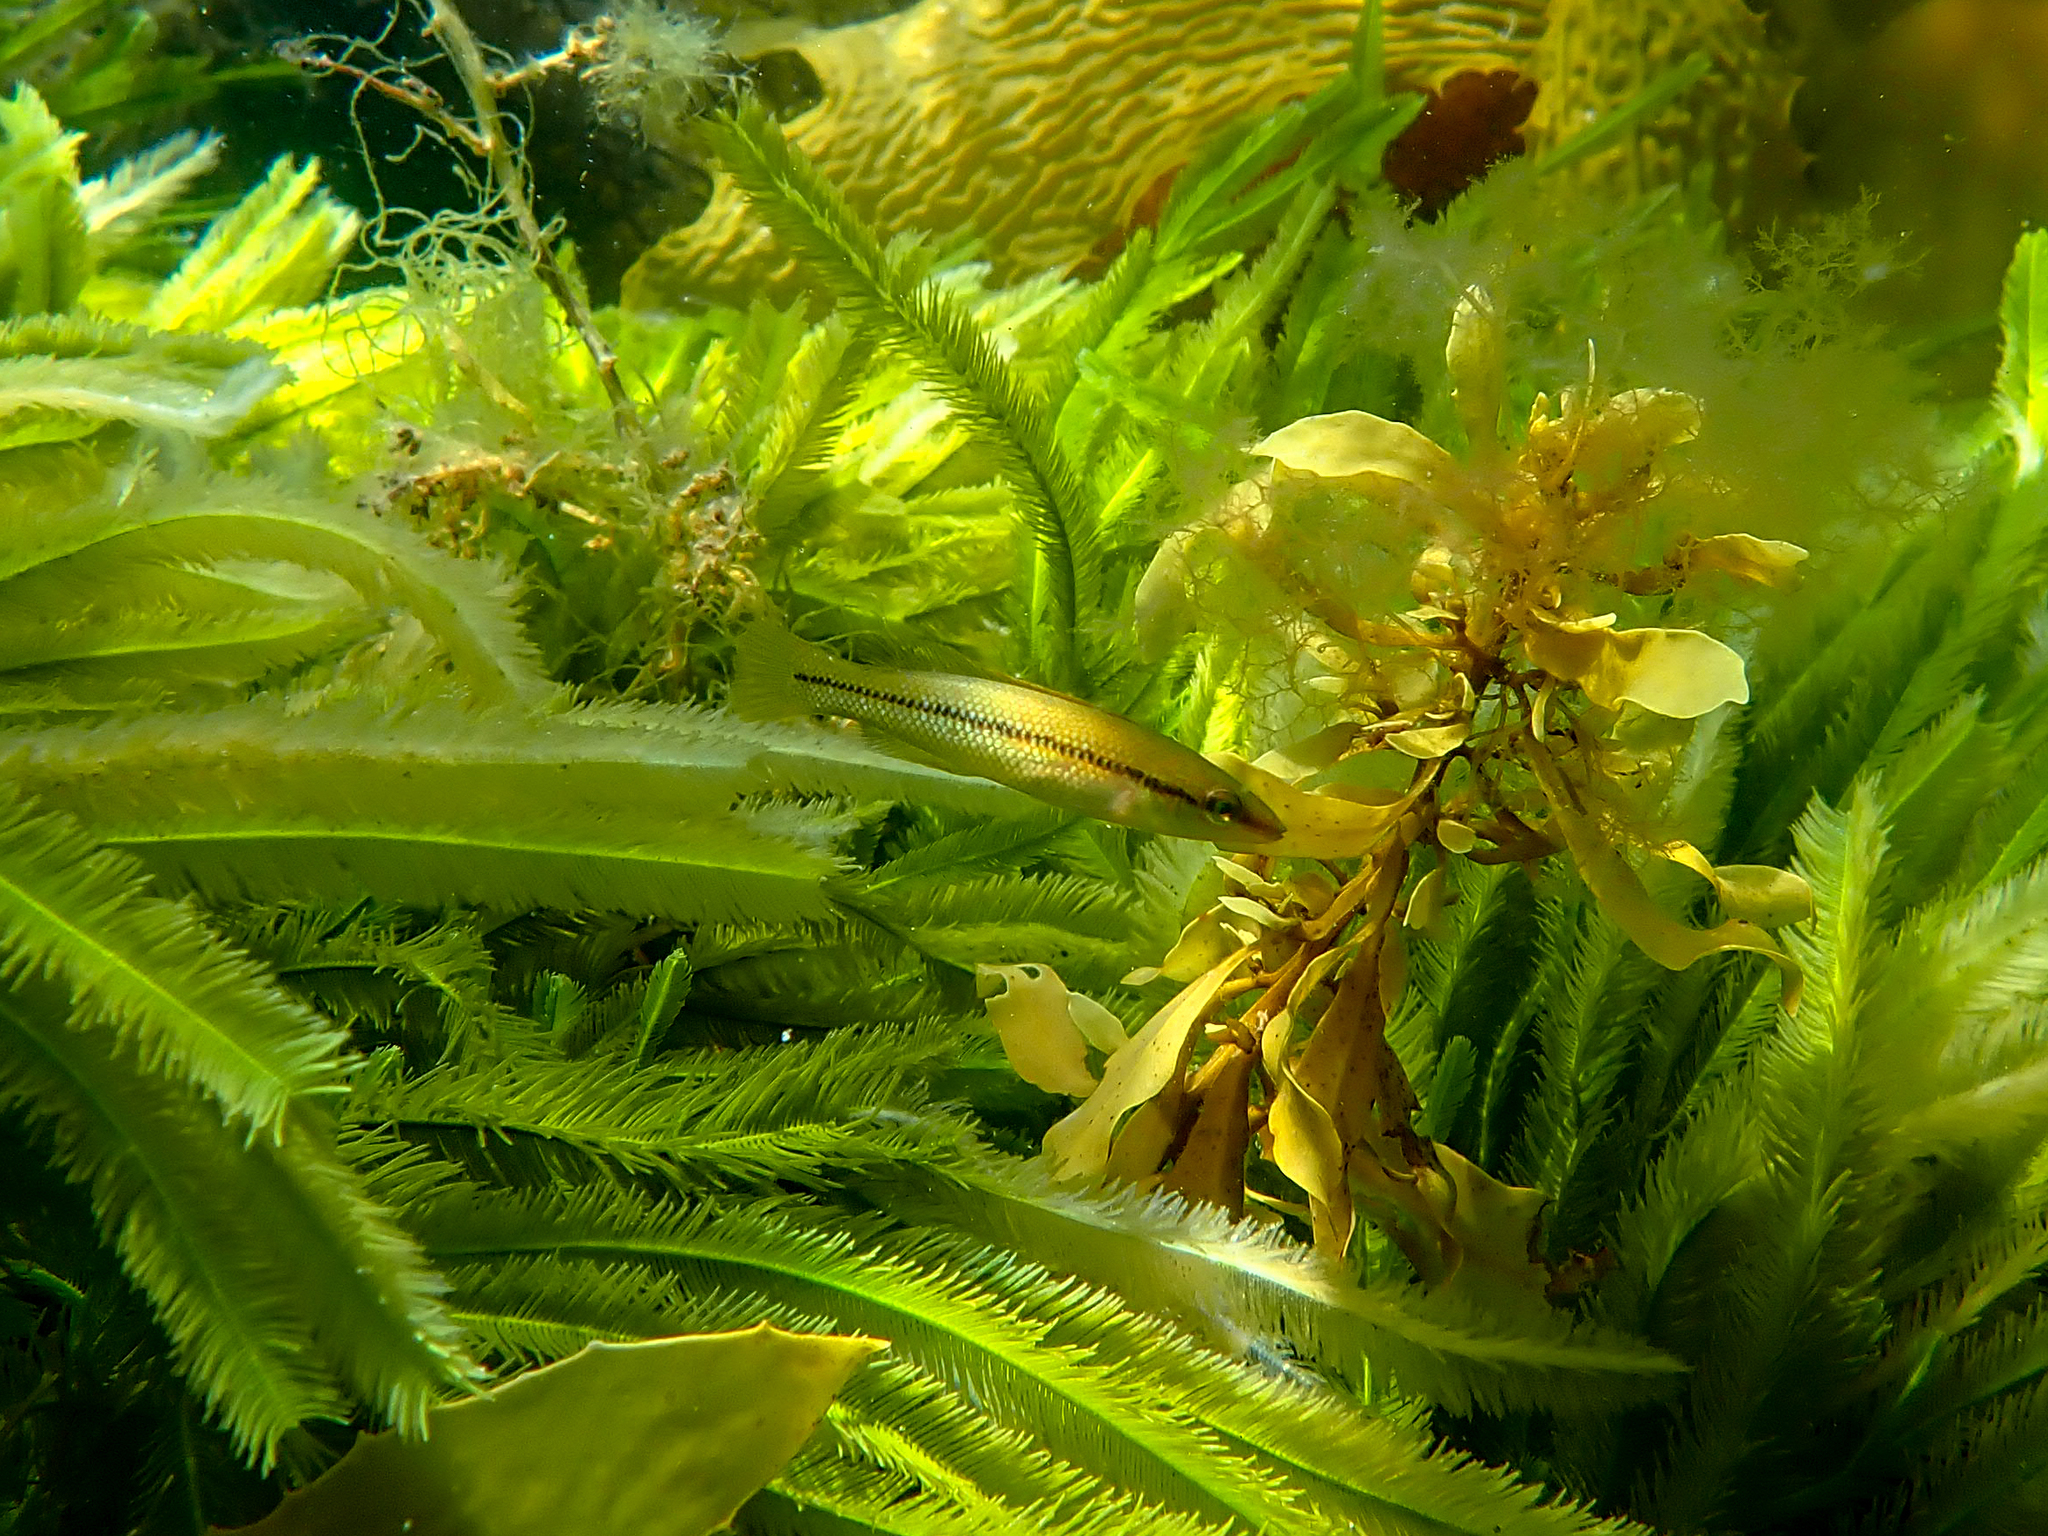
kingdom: Animalia
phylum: Chordata
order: Perciformes
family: Odacidae
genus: Neoodax
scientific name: Neoodax balteatus
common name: Ground mullet
